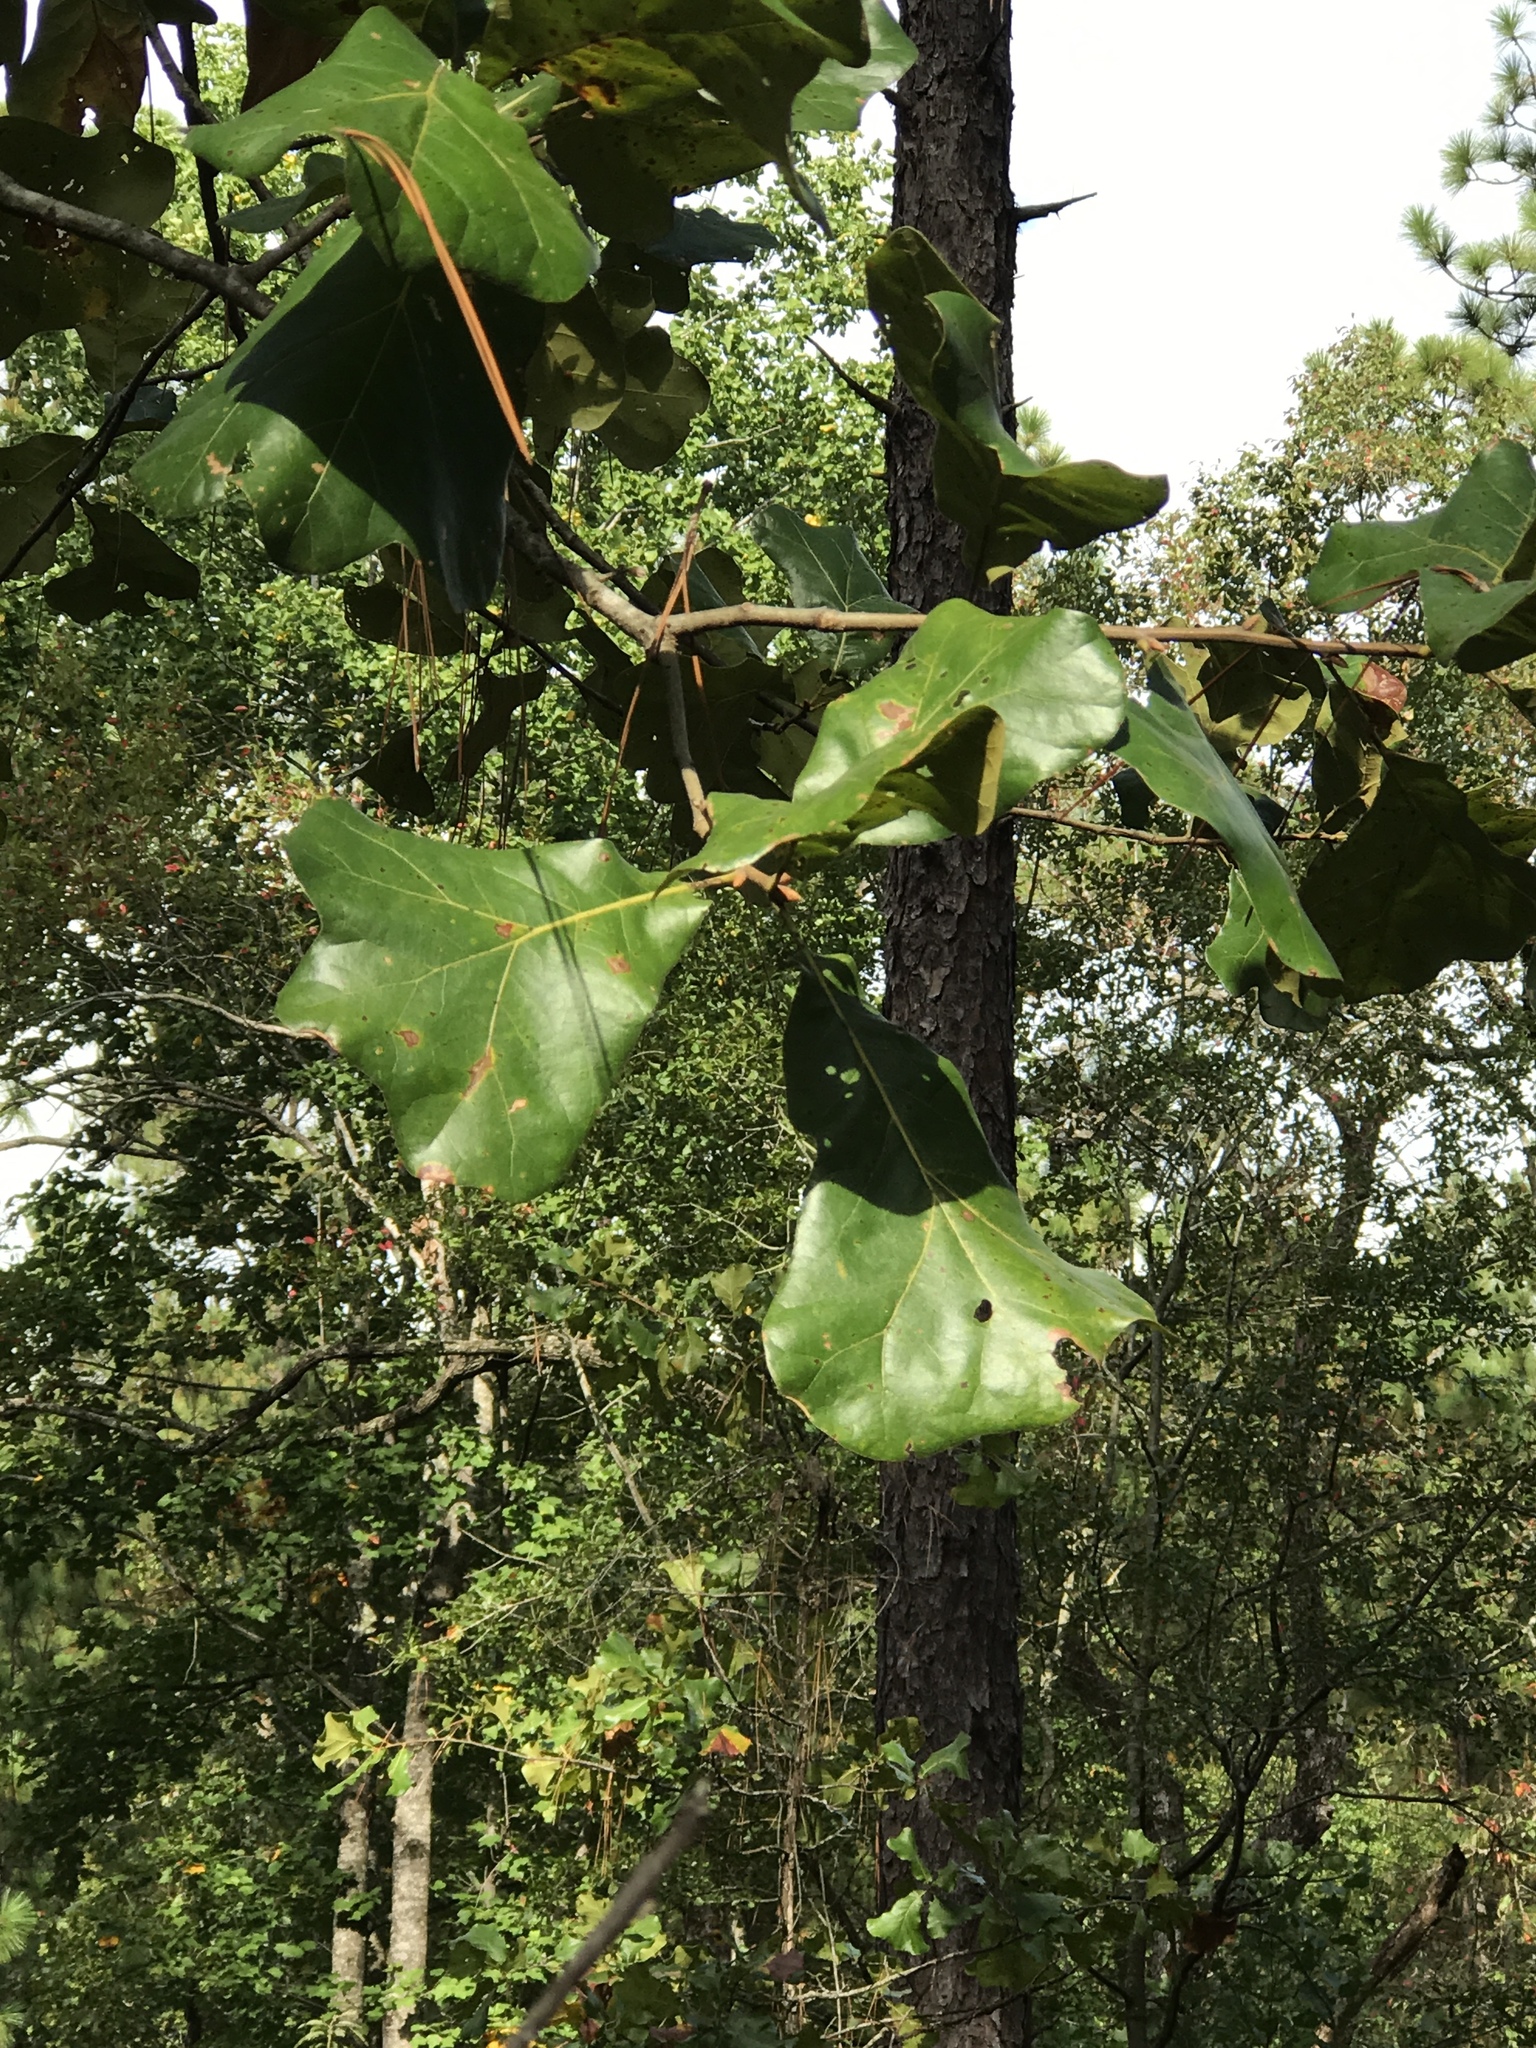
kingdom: Plantae
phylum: Tracheophyta
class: Magnoliopsida
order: Fagales
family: Fagaceae
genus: Quercus
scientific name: Quercus marilandica
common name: Blackjack oak
